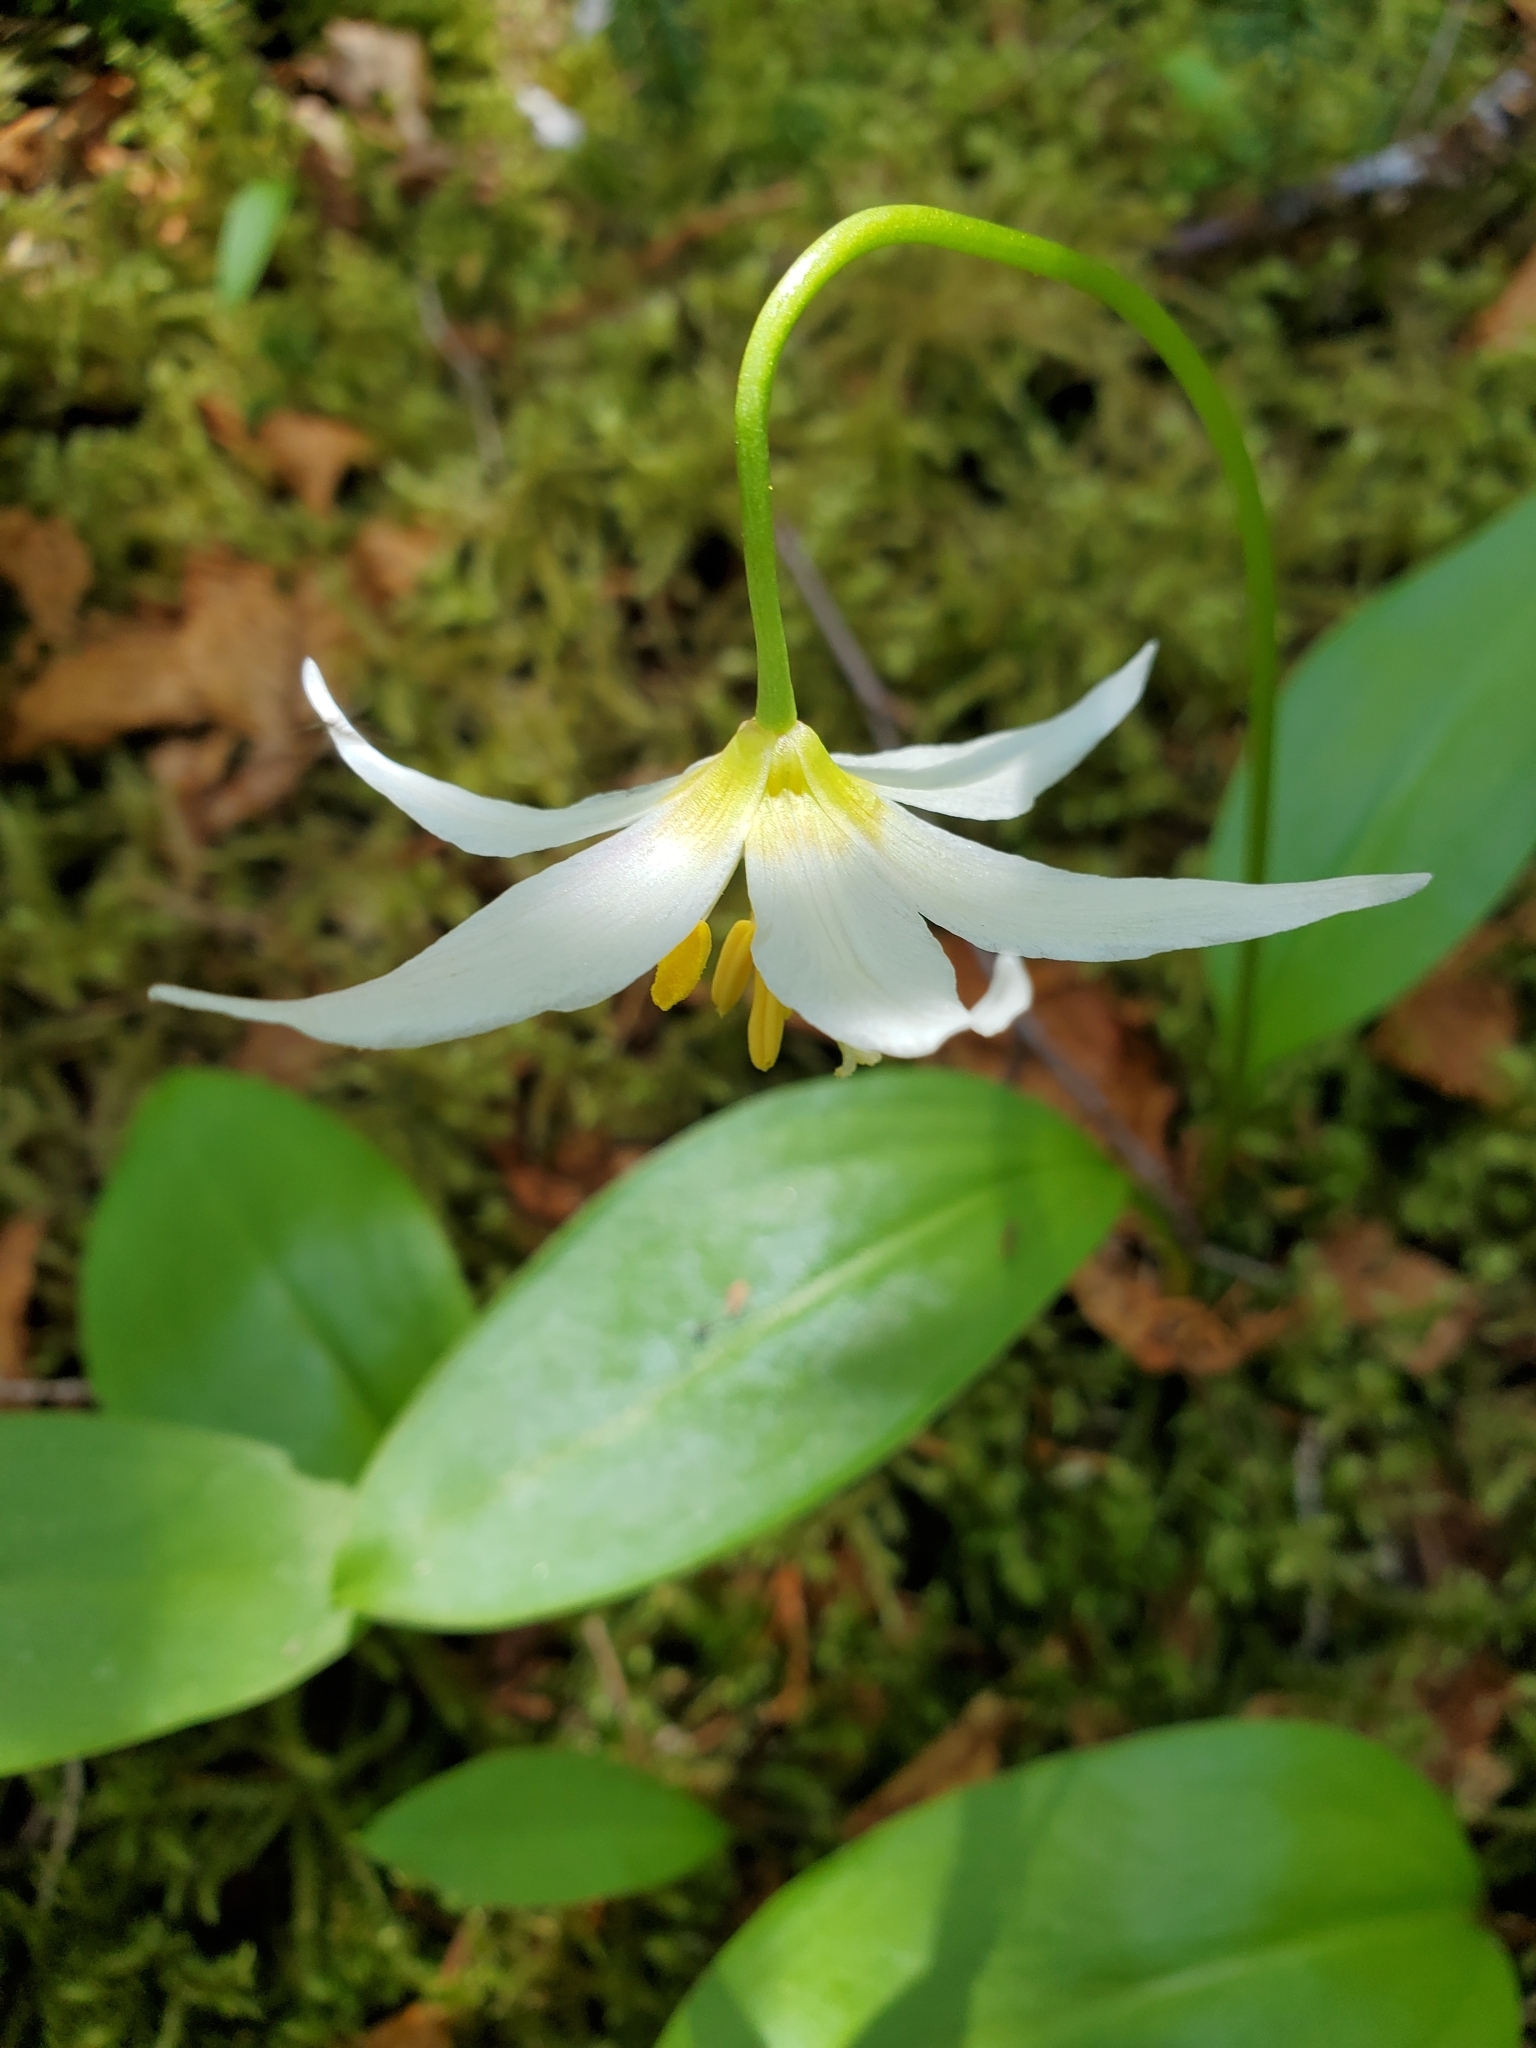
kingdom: Plantae
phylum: Tracheophyta
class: Liliopsida
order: Liliales
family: Liliaceae
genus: Erythronium
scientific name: Erythronium montanum
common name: Avalanche lily
